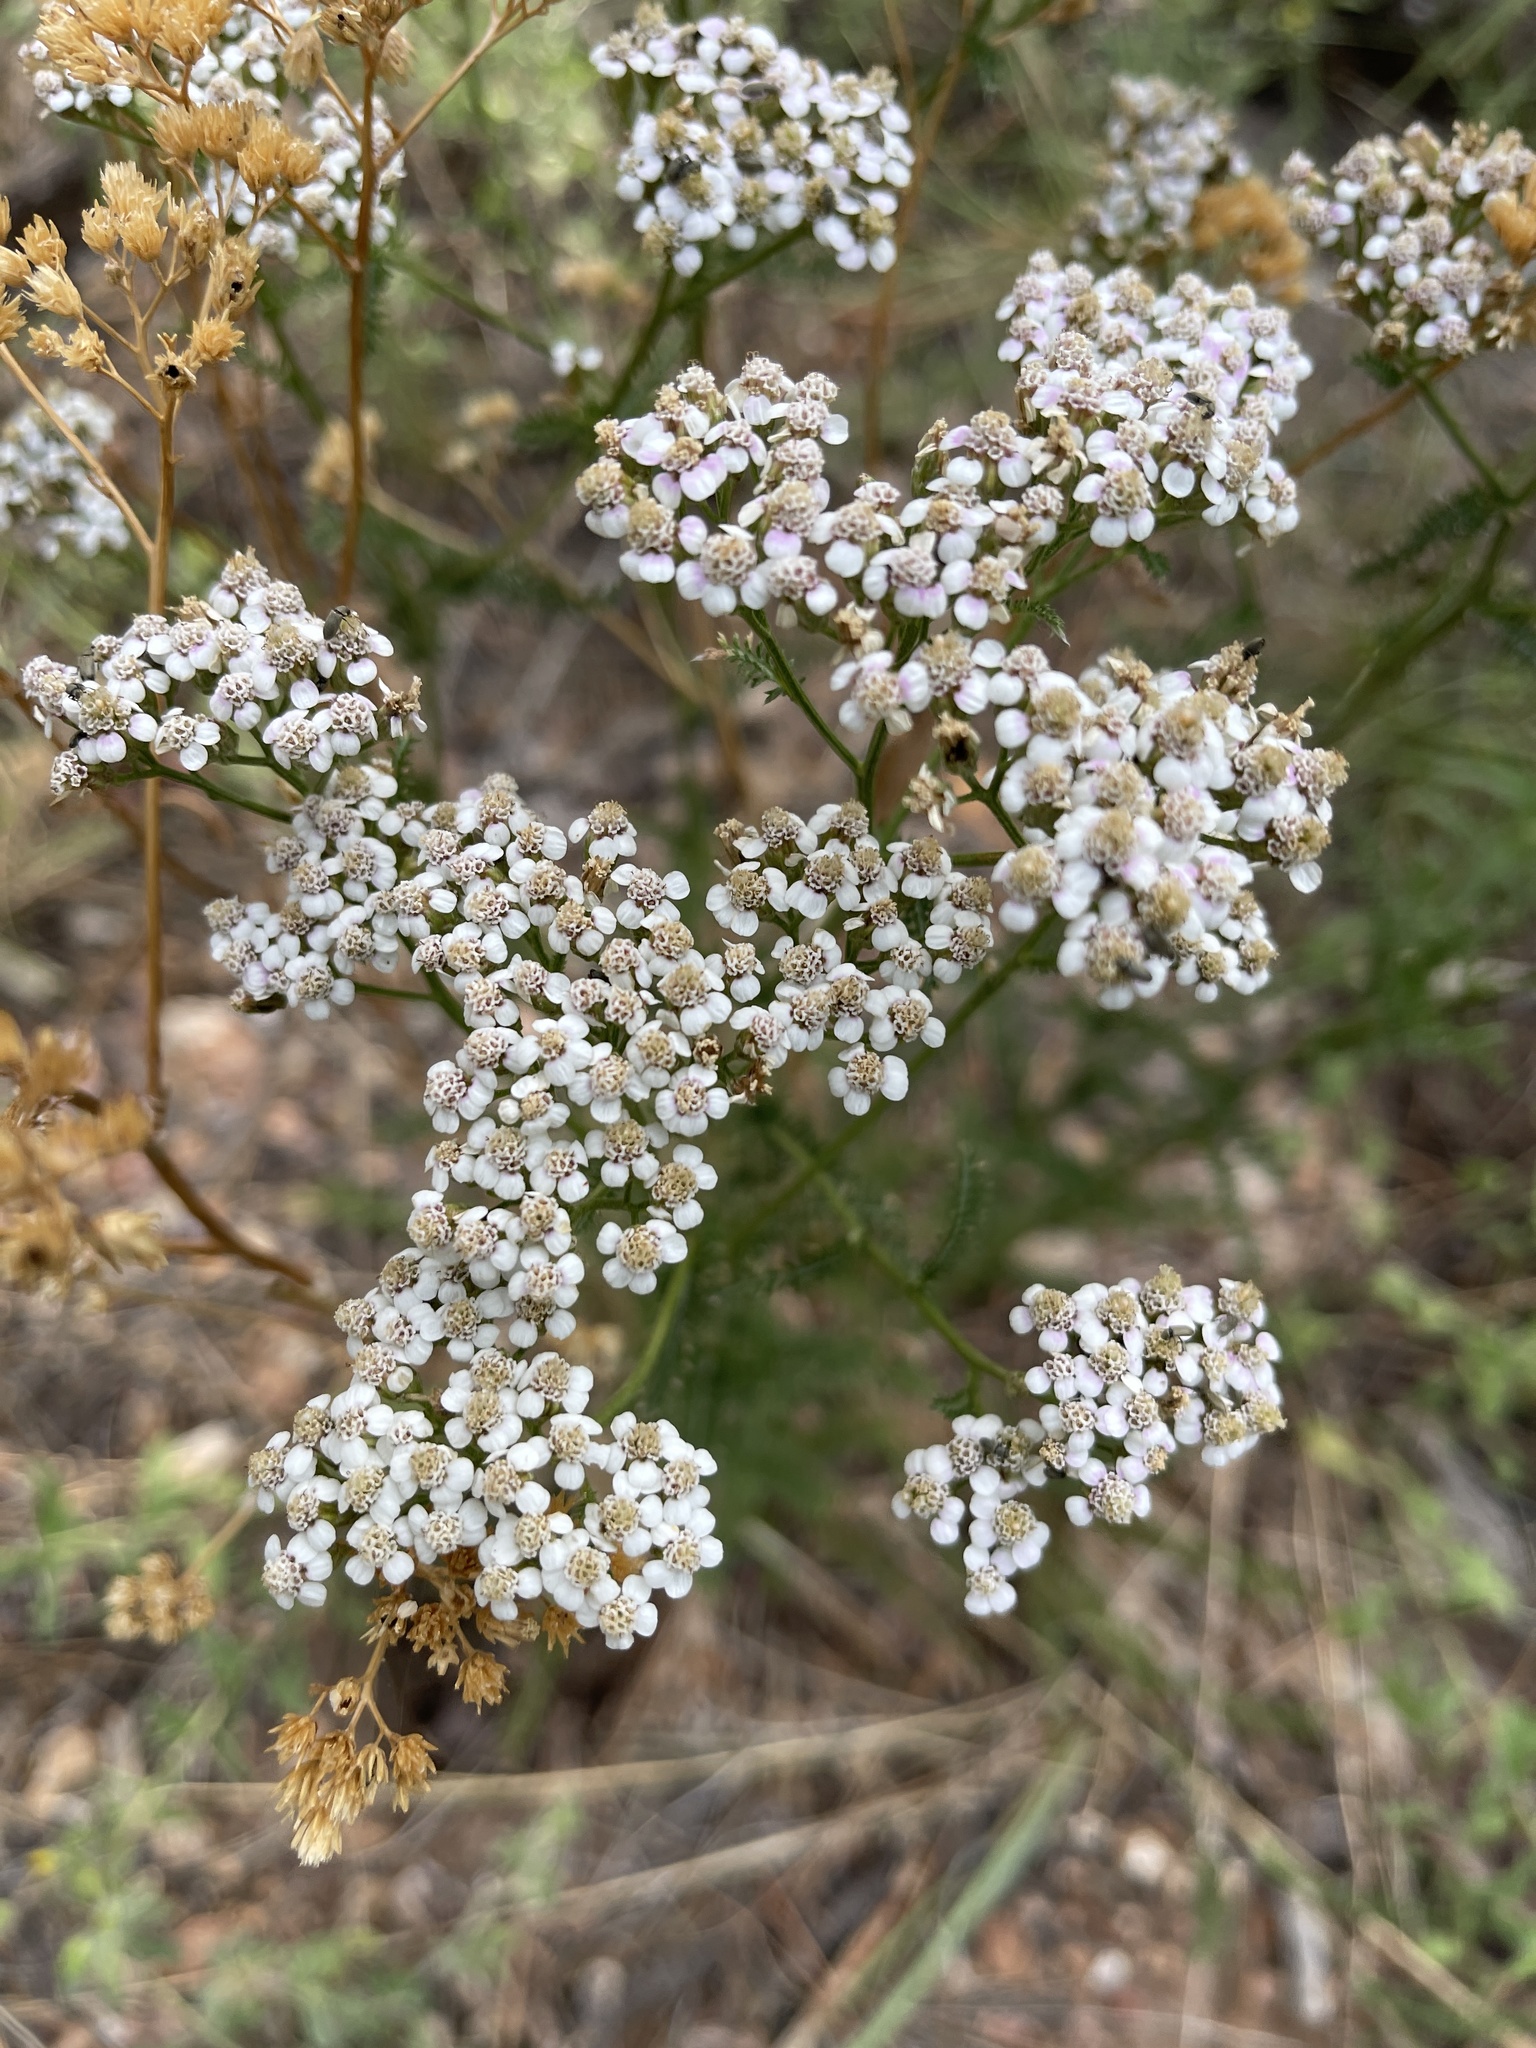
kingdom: Plantae
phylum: Tracheophyta
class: Magnoliopsida
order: Asterales
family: Asteraceae
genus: Achillea
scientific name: Achillea millefolium
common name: Yarrow
